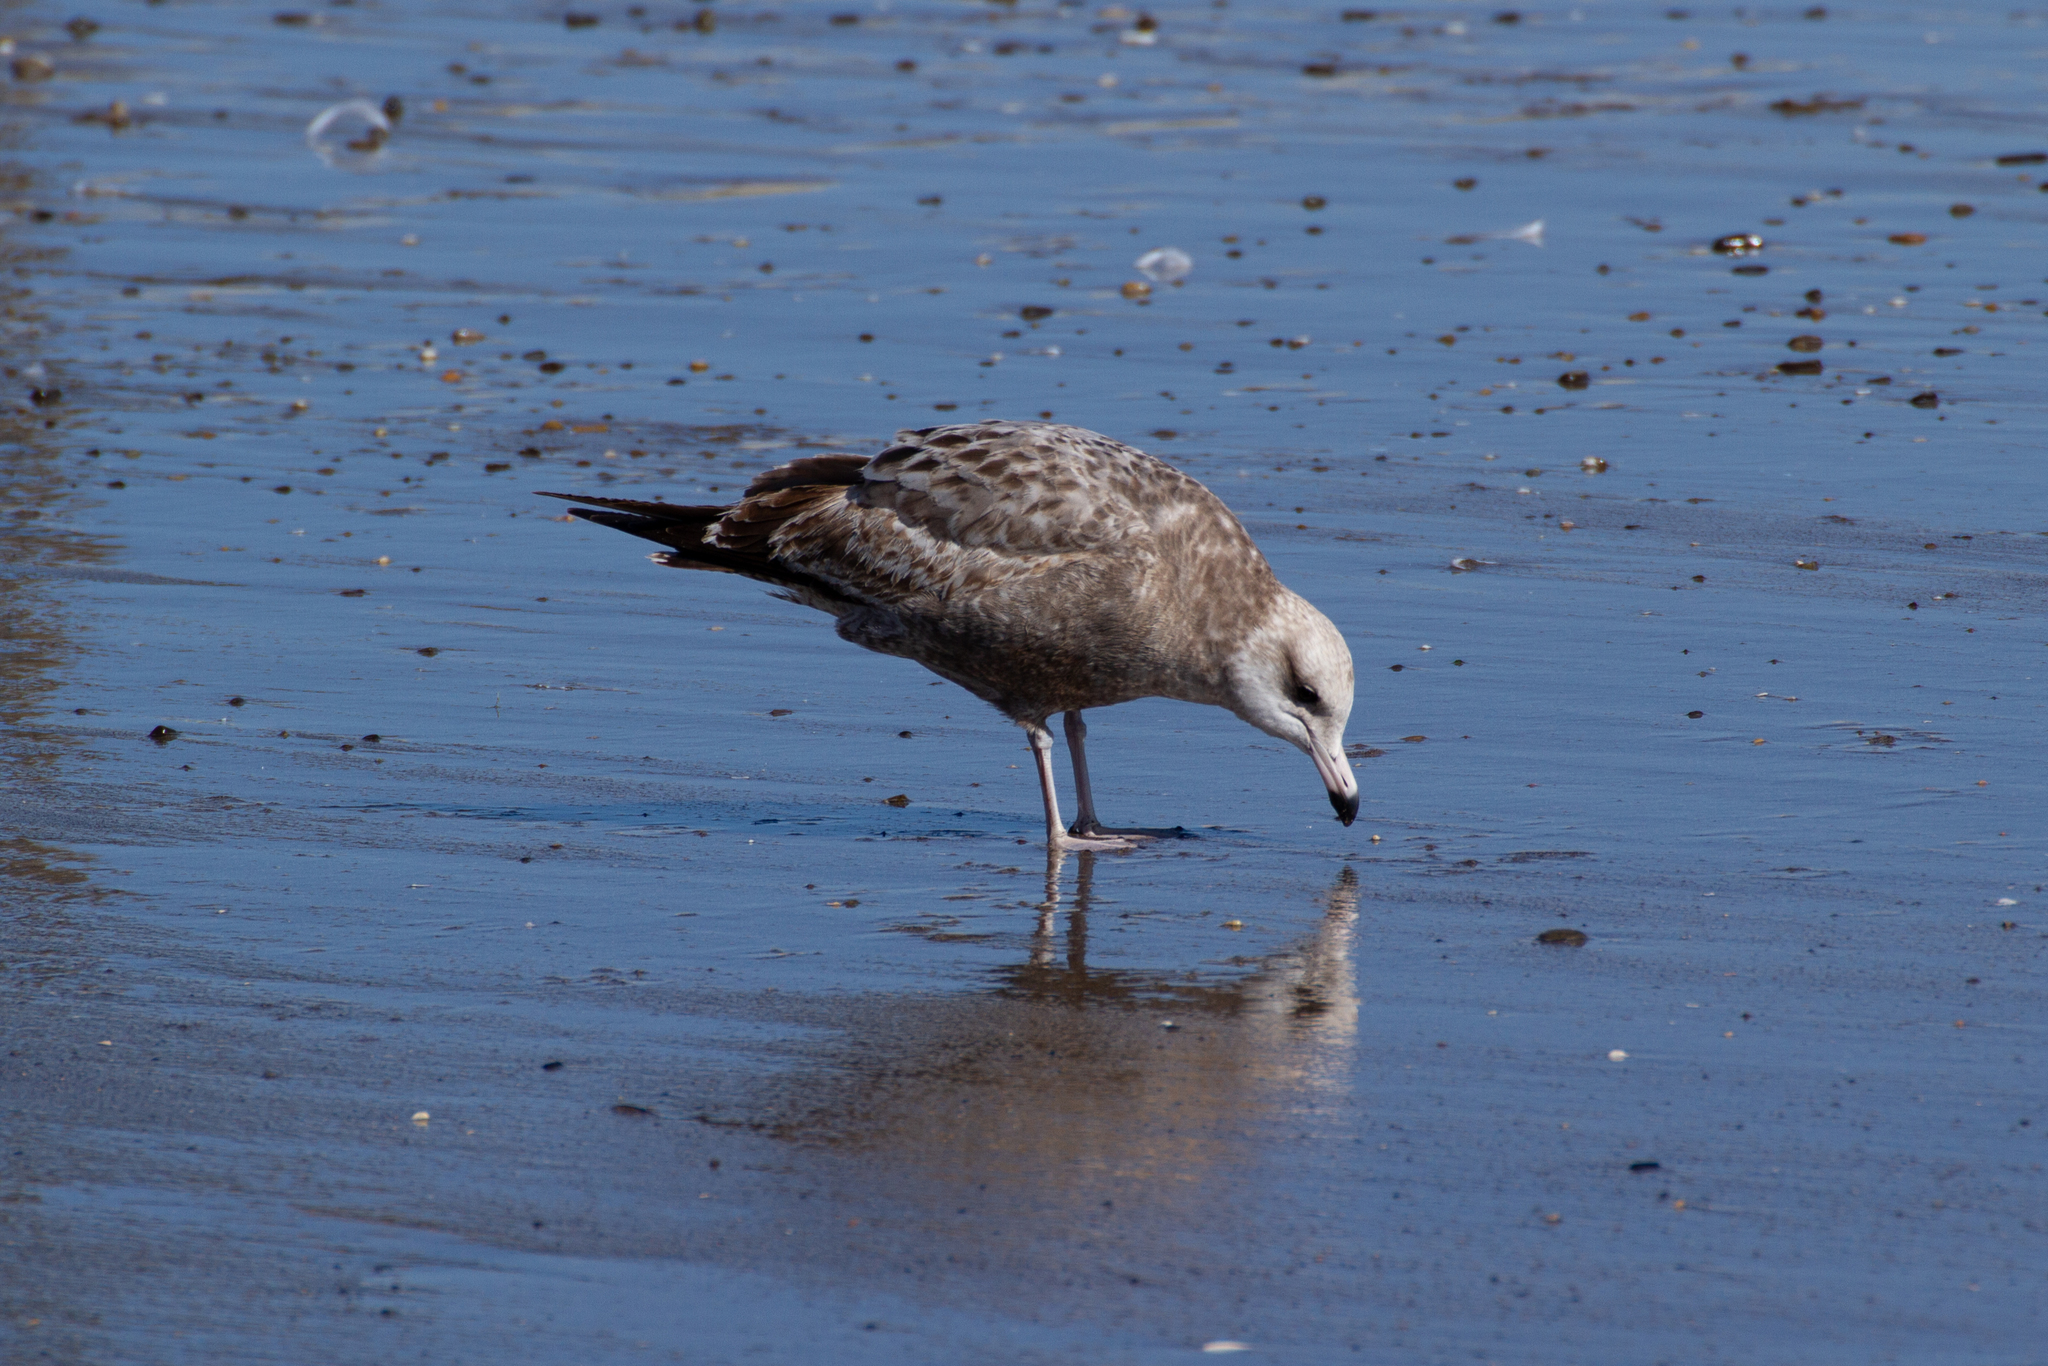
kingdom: Animalia
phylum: Chordata
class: Aves
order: Charadriiformes
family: Laridae
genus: Larus
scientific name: Larus californicus
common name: California gull
